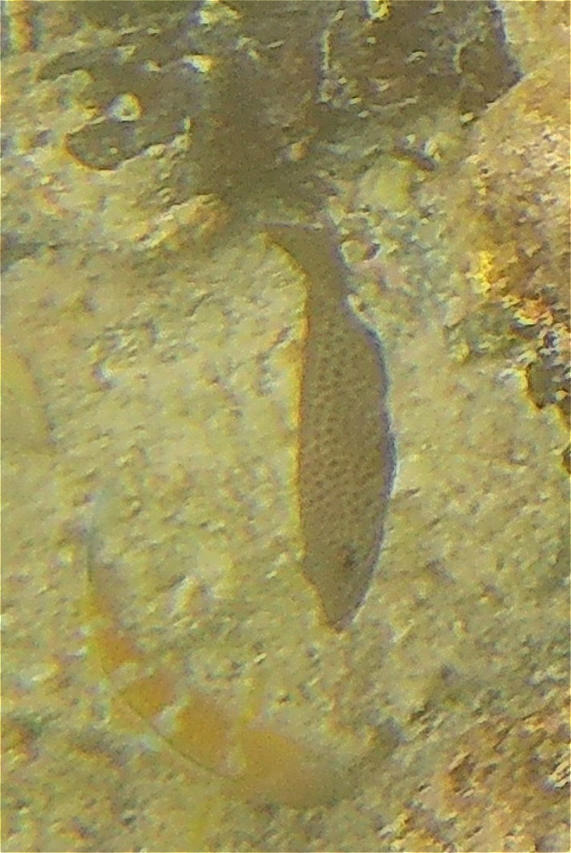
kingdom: Animalia
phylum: Chordata
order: Perciformes
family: Serranidae
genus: Epinephelus
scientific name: Epinephelus analogus
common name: Spotted cabrilla
